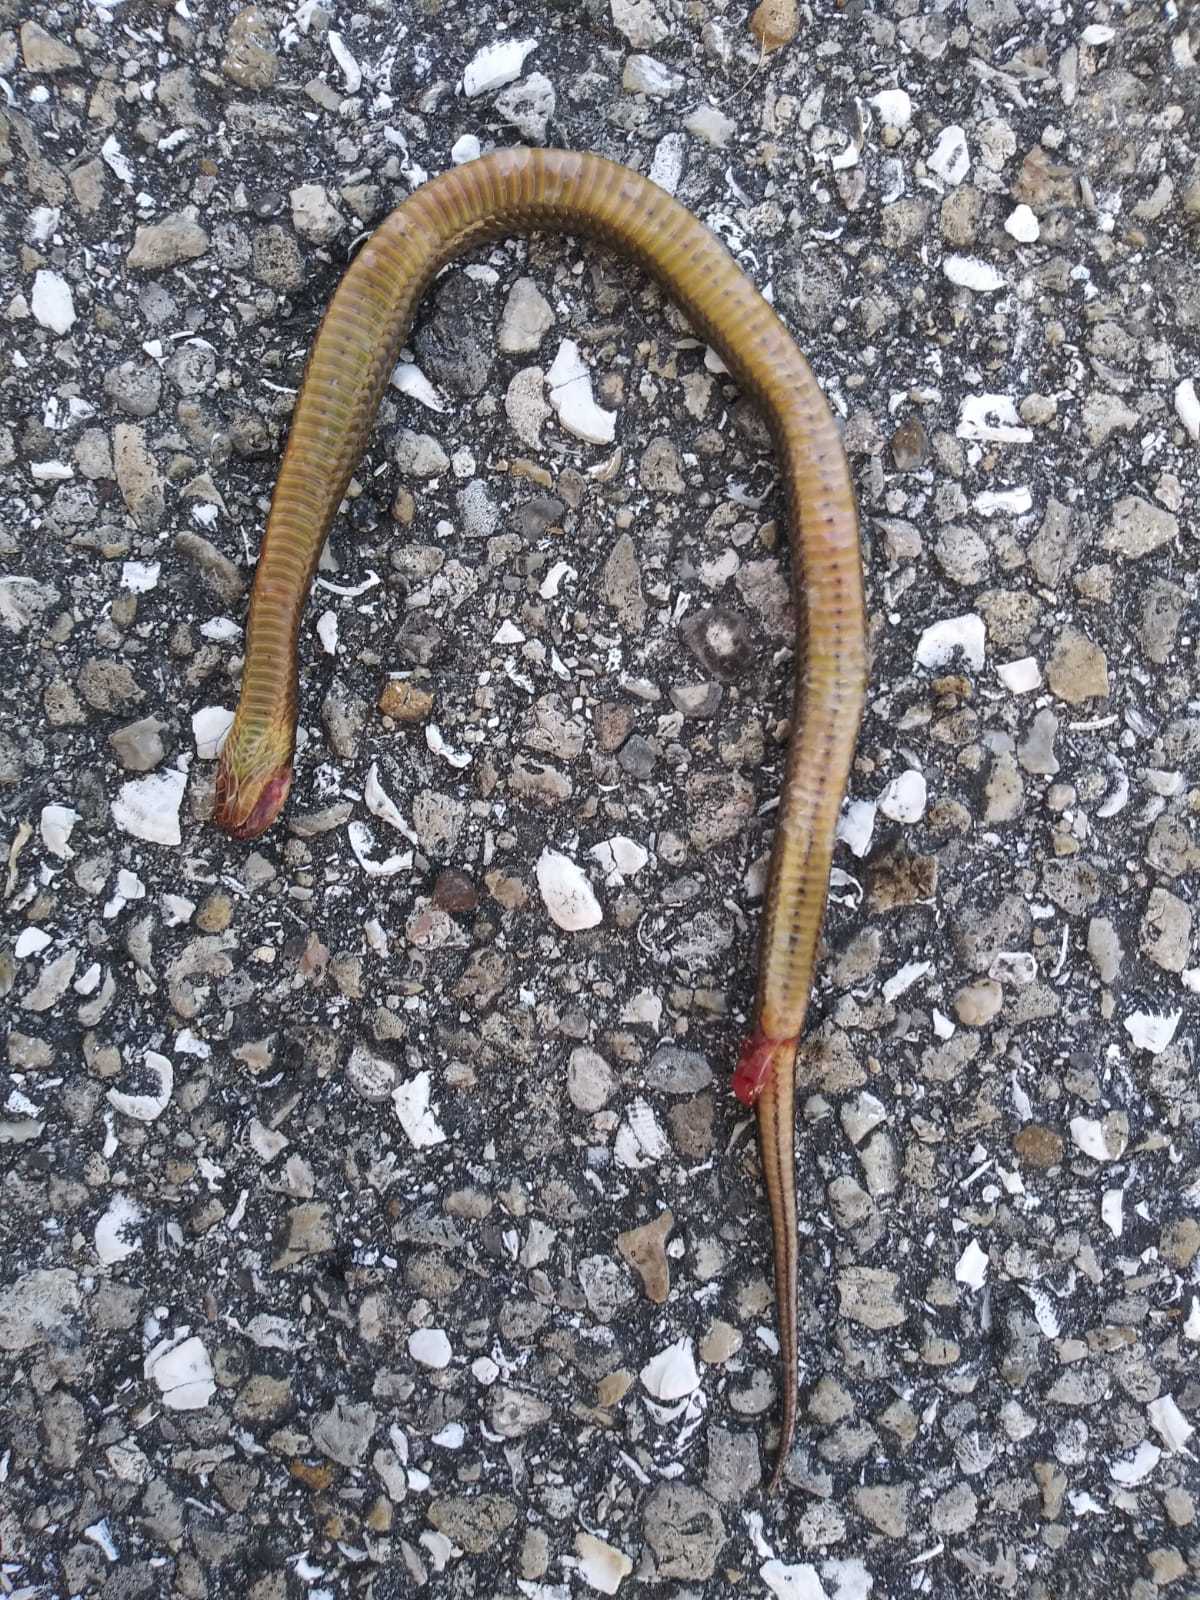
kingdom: Animalia
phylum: Chordata
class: Squamata
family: Colubridae
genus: Liodytes
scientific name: Liodytes alleni
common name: Striped crayfish snake
